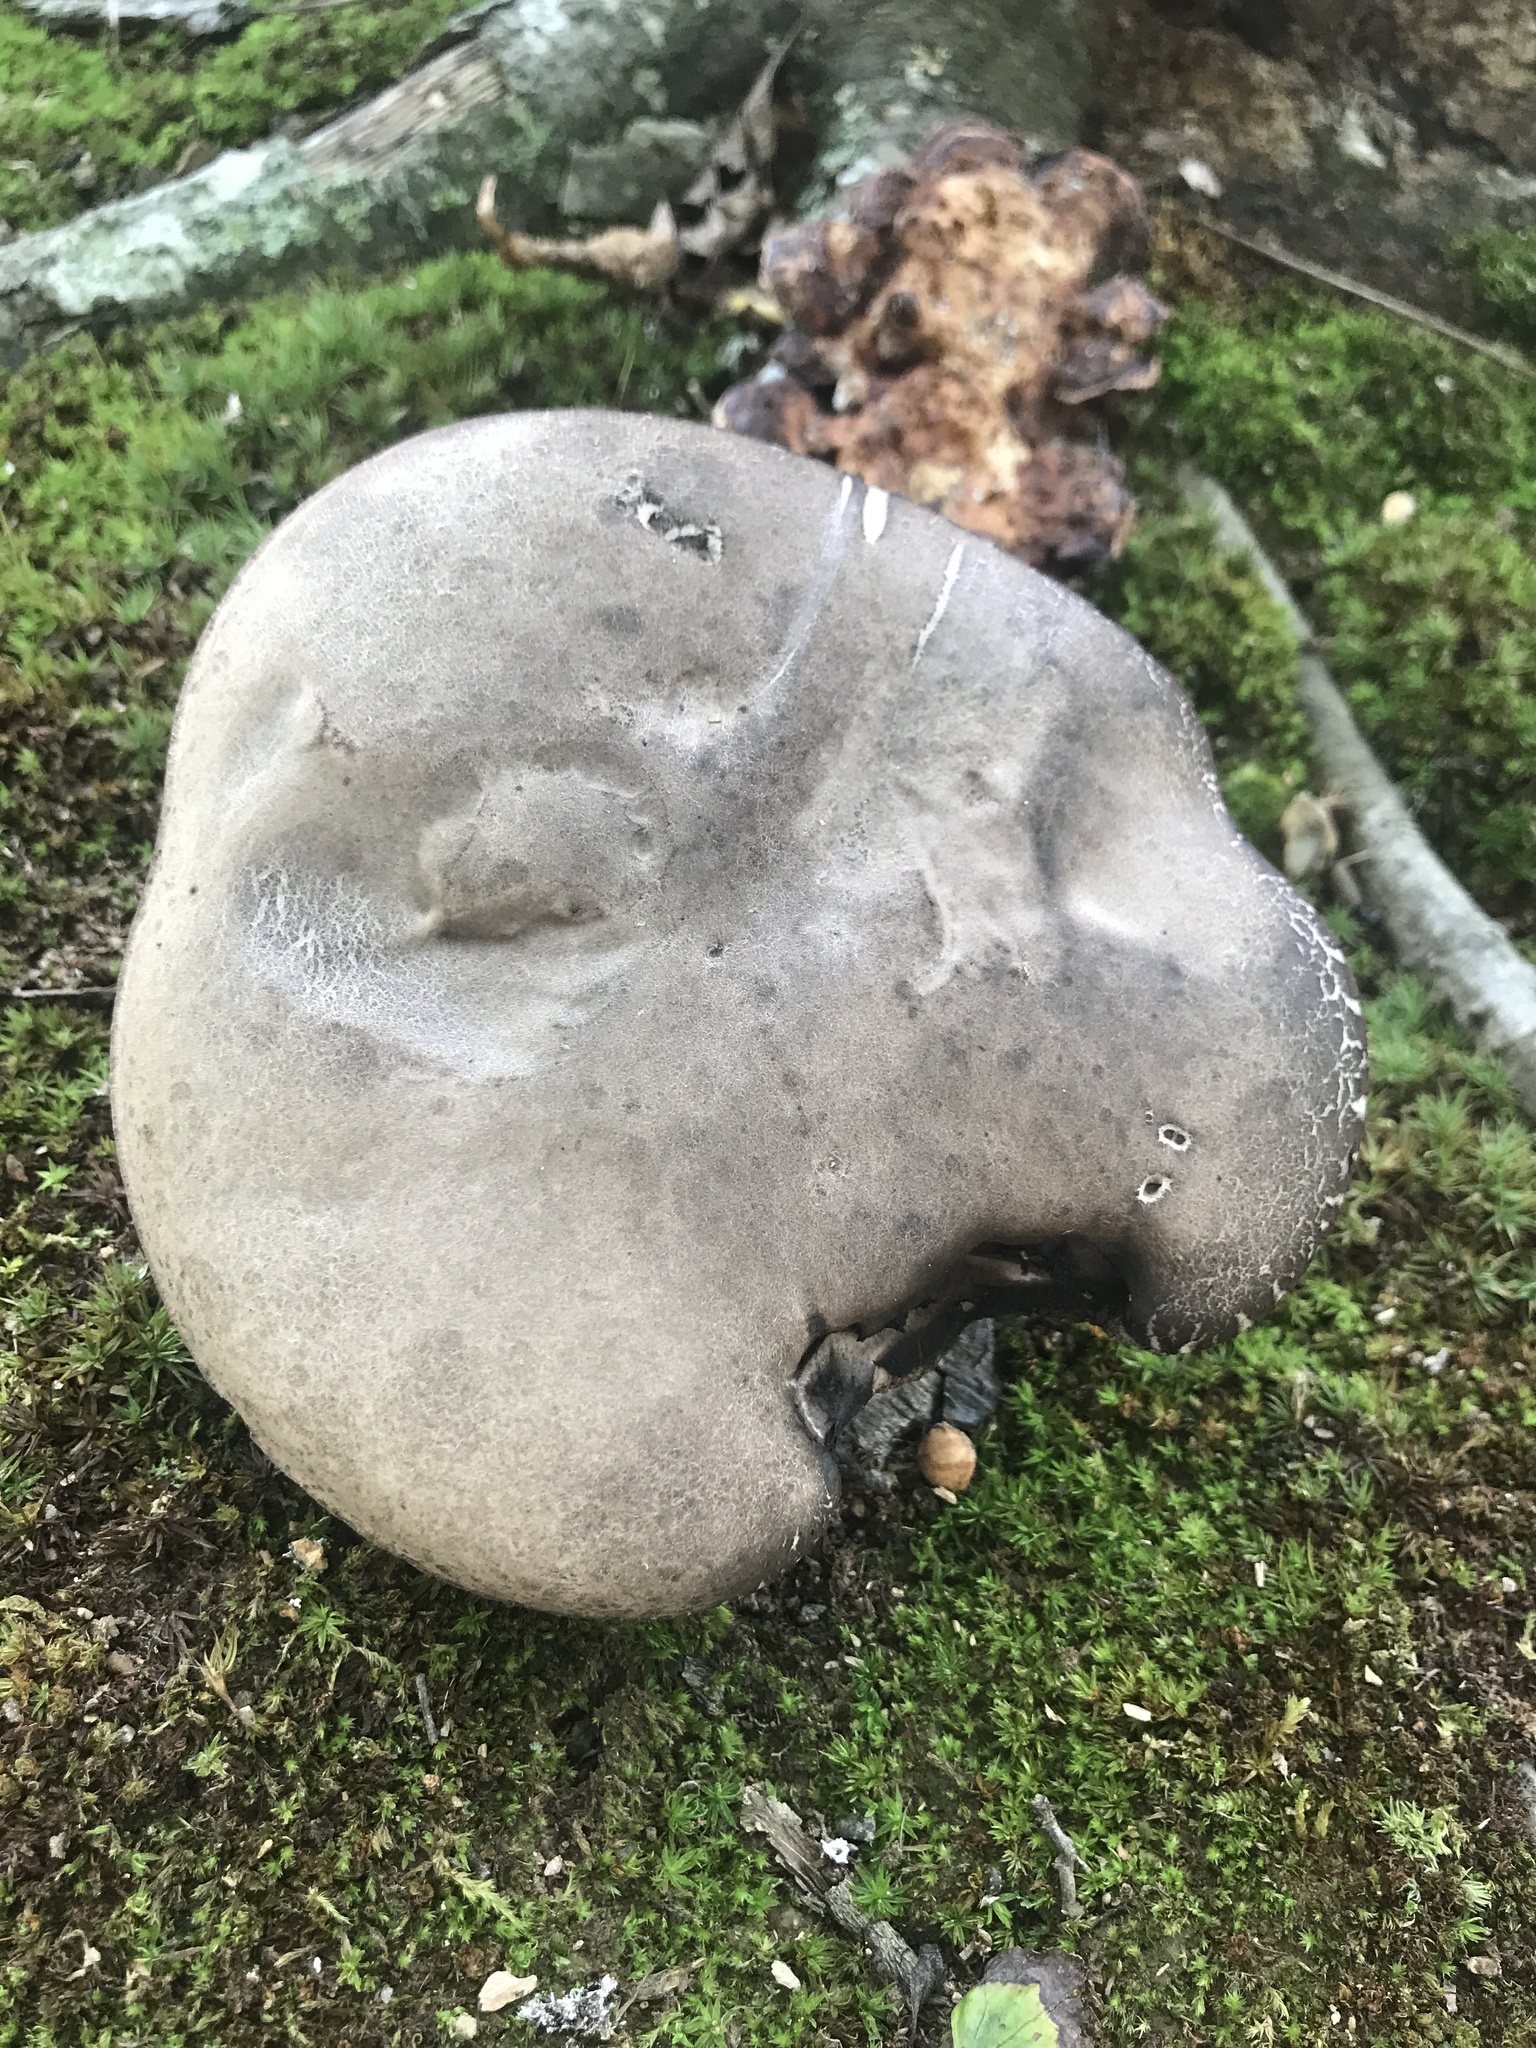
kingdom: Fungi
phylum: Basidiomycota
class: Agaricomycetes
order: Boletales
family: Boletaceae
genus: Tylopilus
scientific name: Tylopilus alboater
